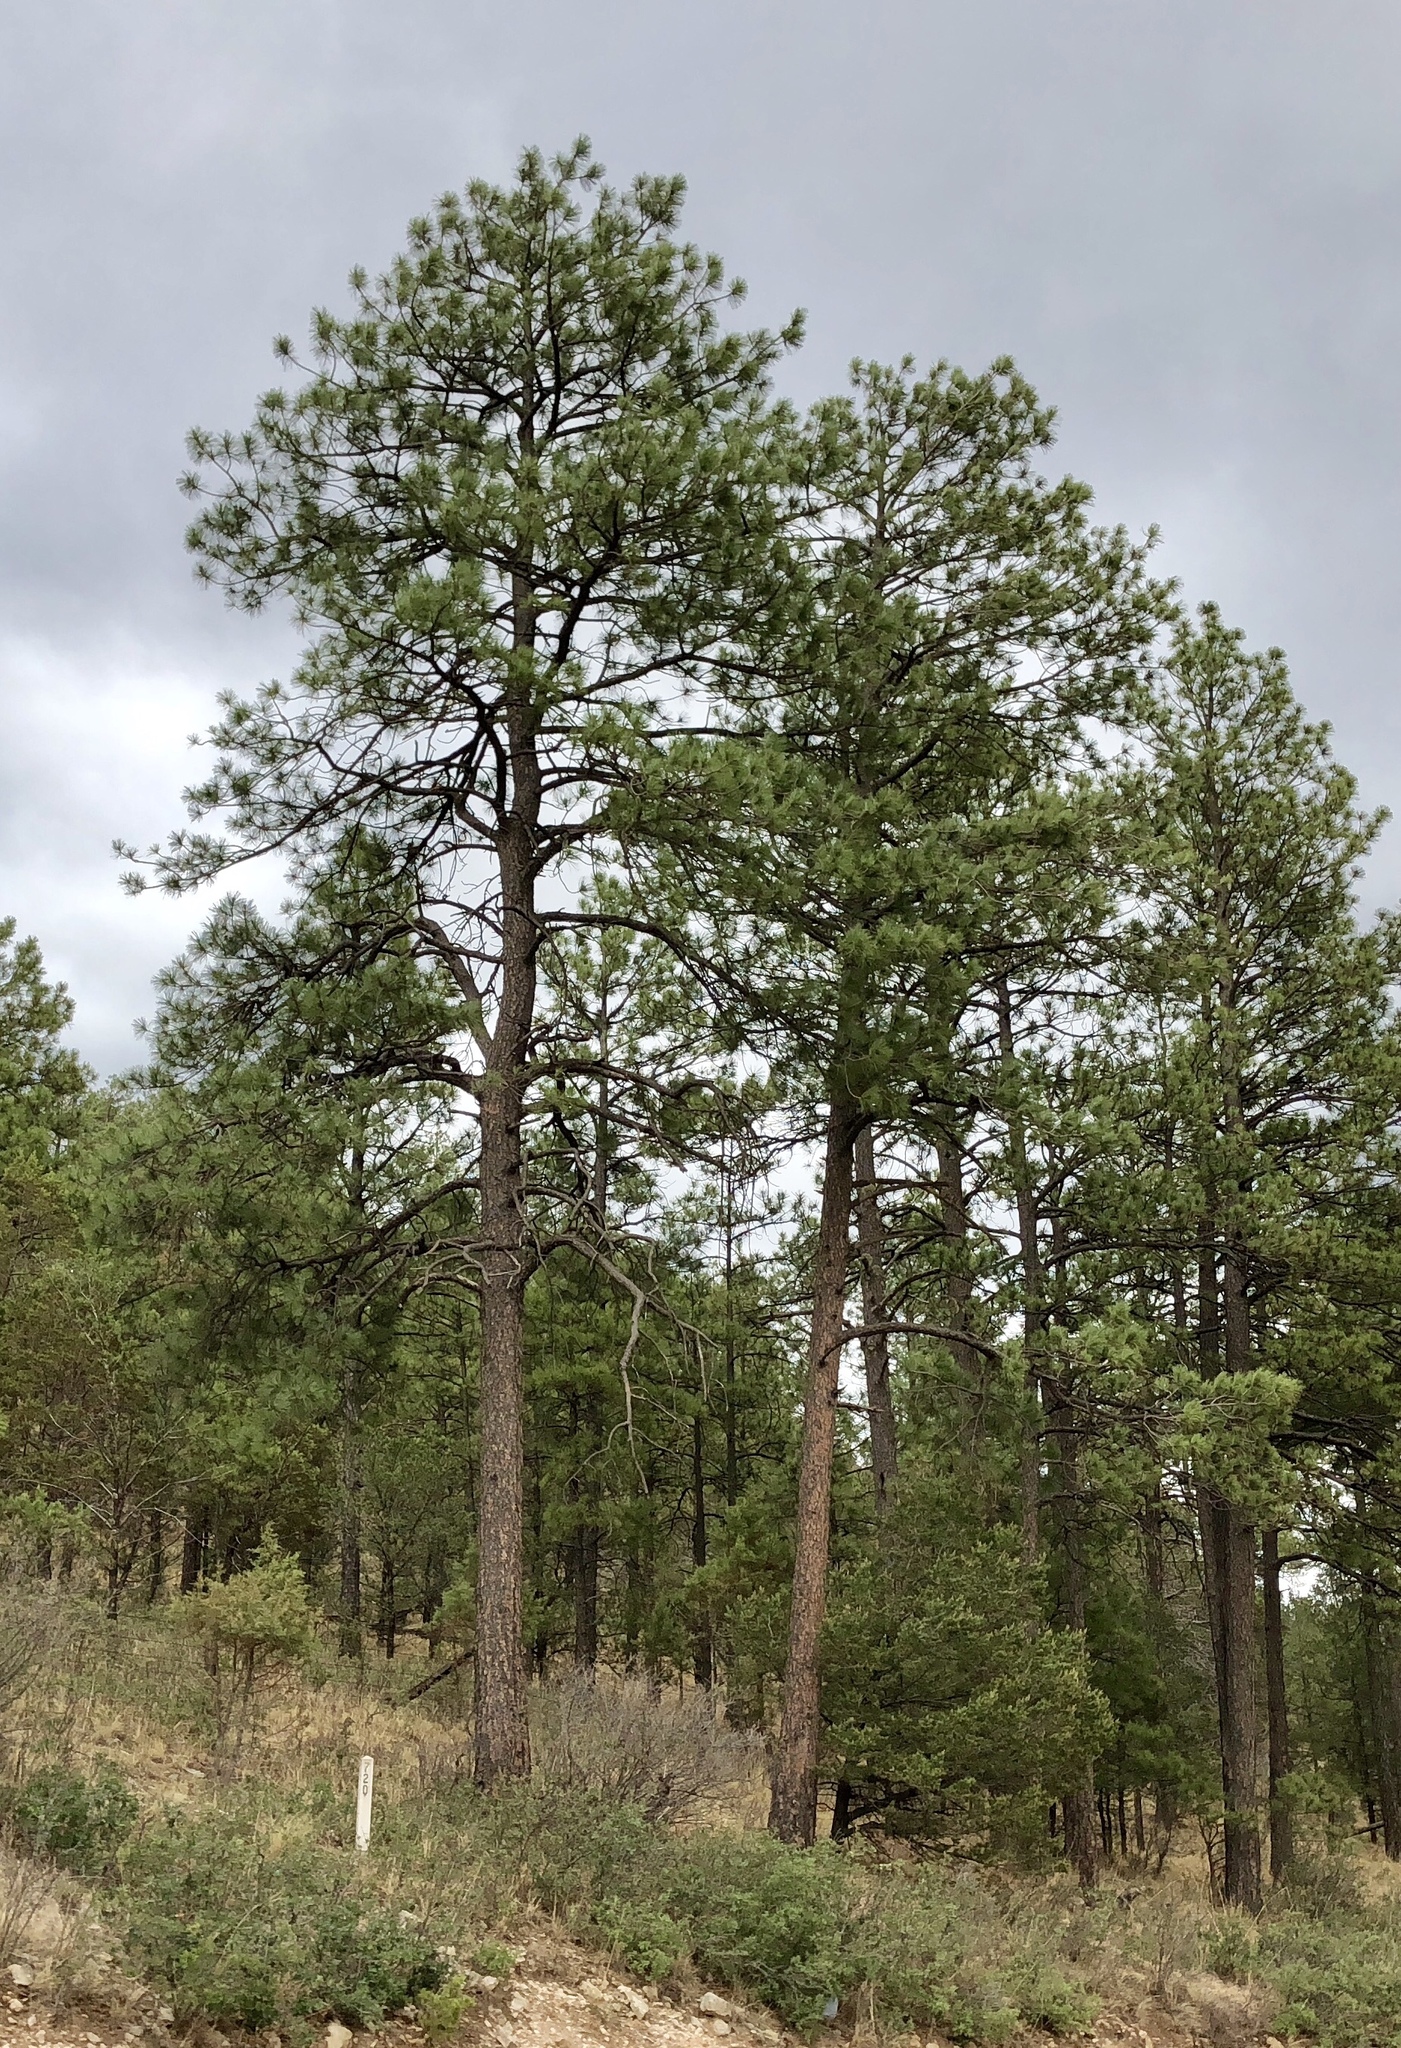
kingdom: Plantae
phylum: Tracheophyta
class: Pinopsida
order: Pinales
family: Pinaceae
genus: Pinus
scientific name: Pinus ponderosa
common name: Western yellow-pine
